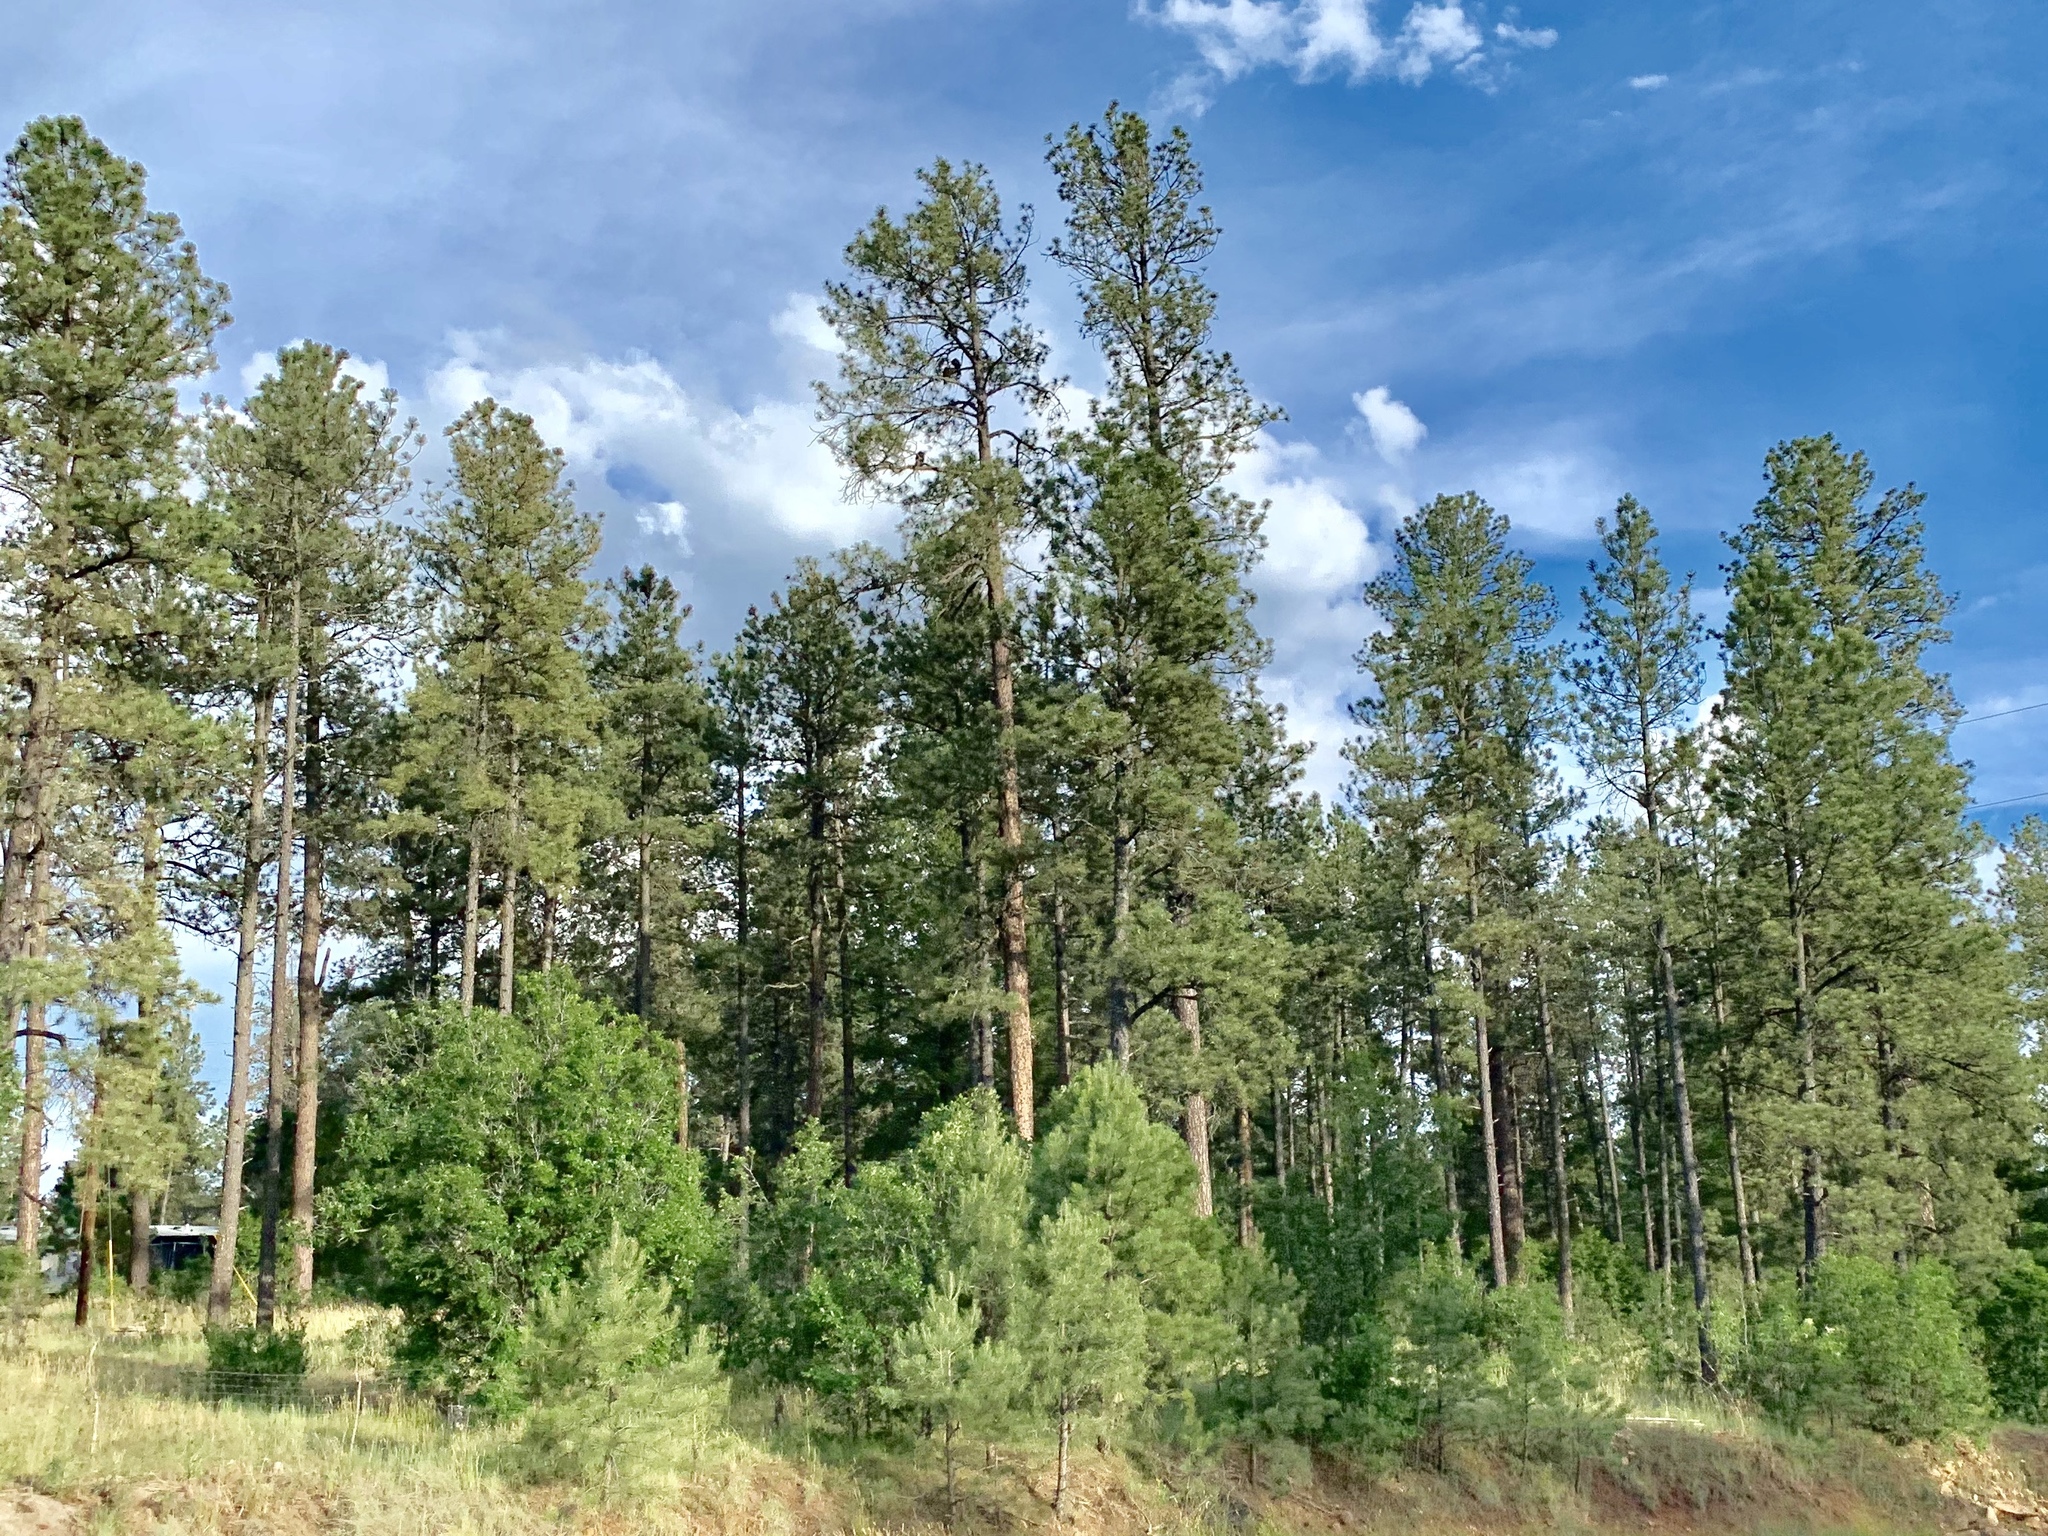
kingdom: Plantae
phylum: Tracheophyta
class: Pinopsida
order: Pinales
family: Pinaceae
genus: Pinus
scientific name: Pinus ponderosa
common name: Western yellow-pine
